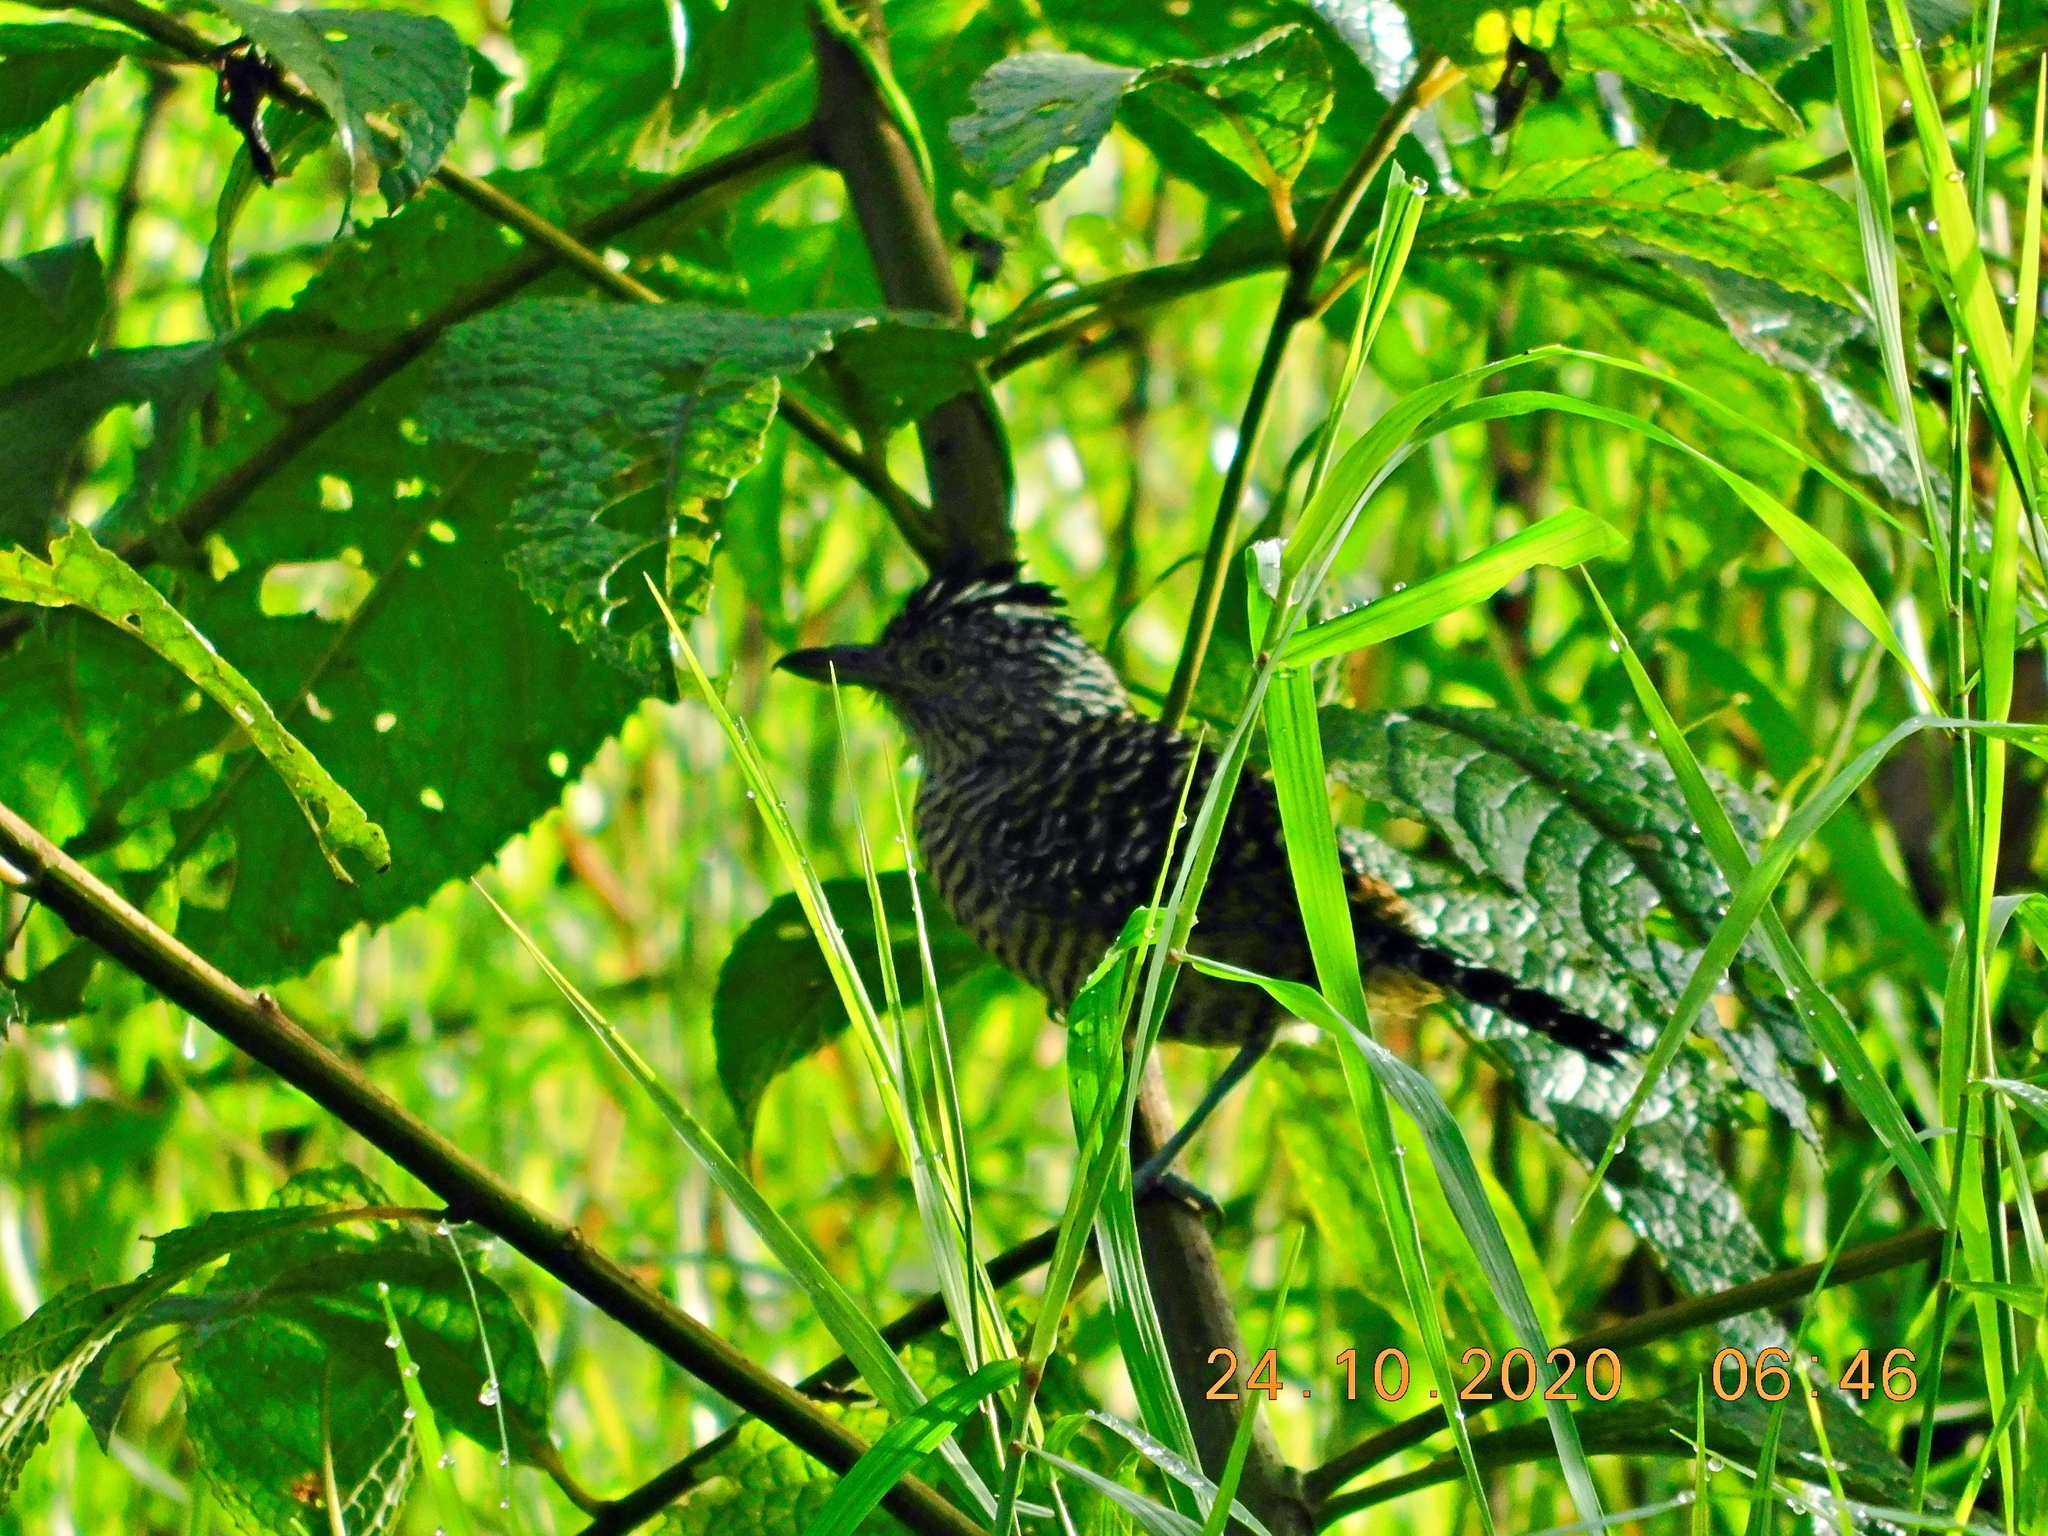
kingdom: Animalia
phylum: Chordata
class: Aves
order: Passeriformes
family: Thamnophilidae
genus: Thamnophilus
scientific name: Thamnophilus doliatus
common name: Barred antshrike
